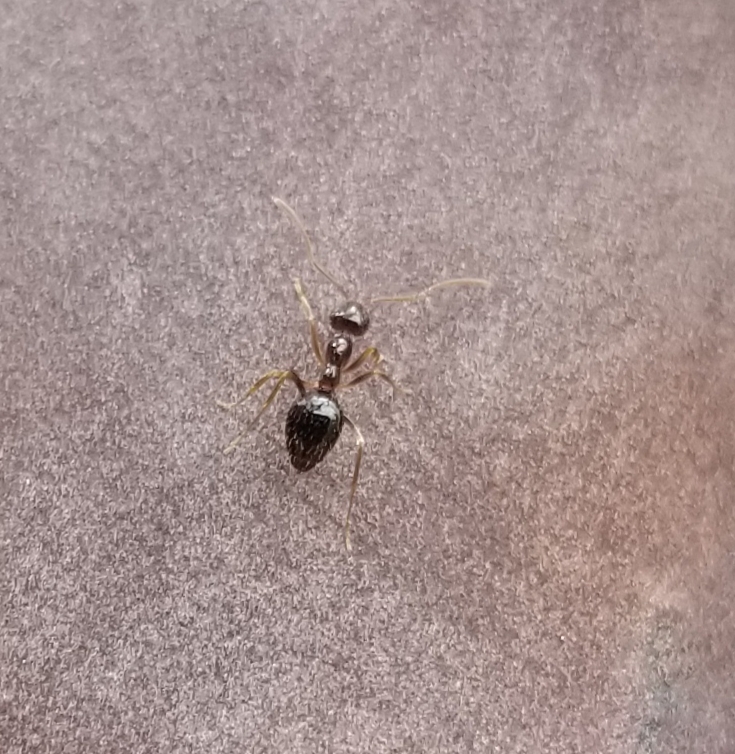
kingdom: Animalia
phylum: Arthropoda
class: Insecta
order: Hymenoptera
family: Formicidae
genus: Prenolepis
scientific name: Prenolepis imparis
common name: Small honey ant
